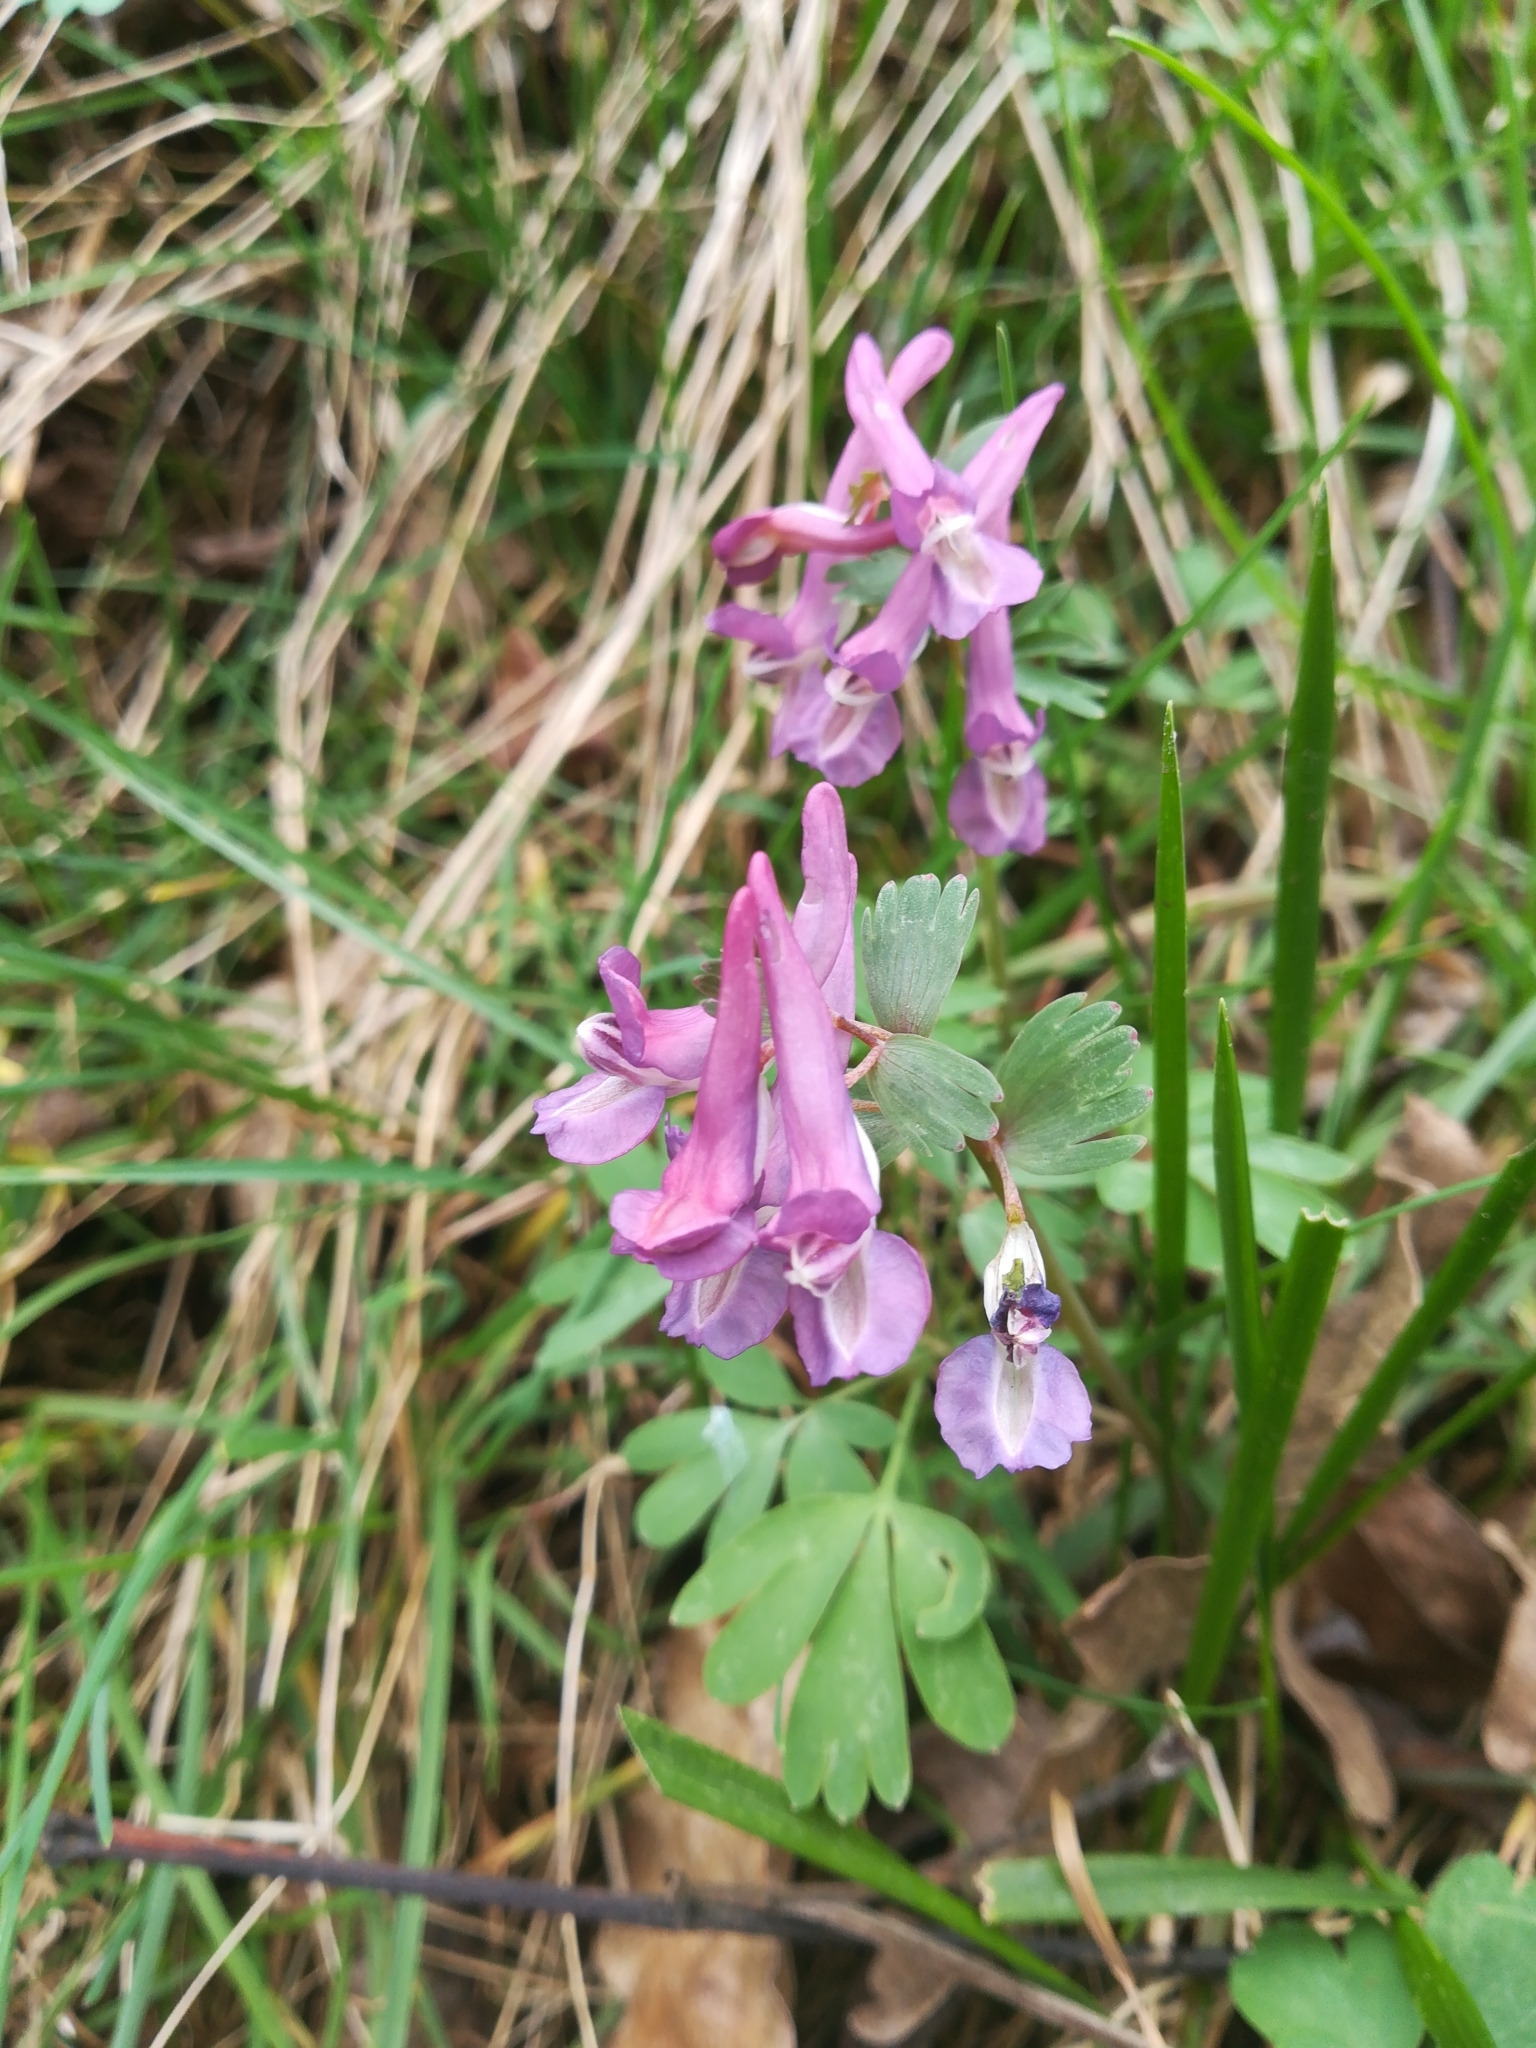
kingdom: Plantae
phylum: Tracheophyta
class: Magnoliopsida
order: Ranunculales
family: Papaveraceae
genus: Corydalis
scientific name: Corydalis solida
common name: Bird-in-a-bush
